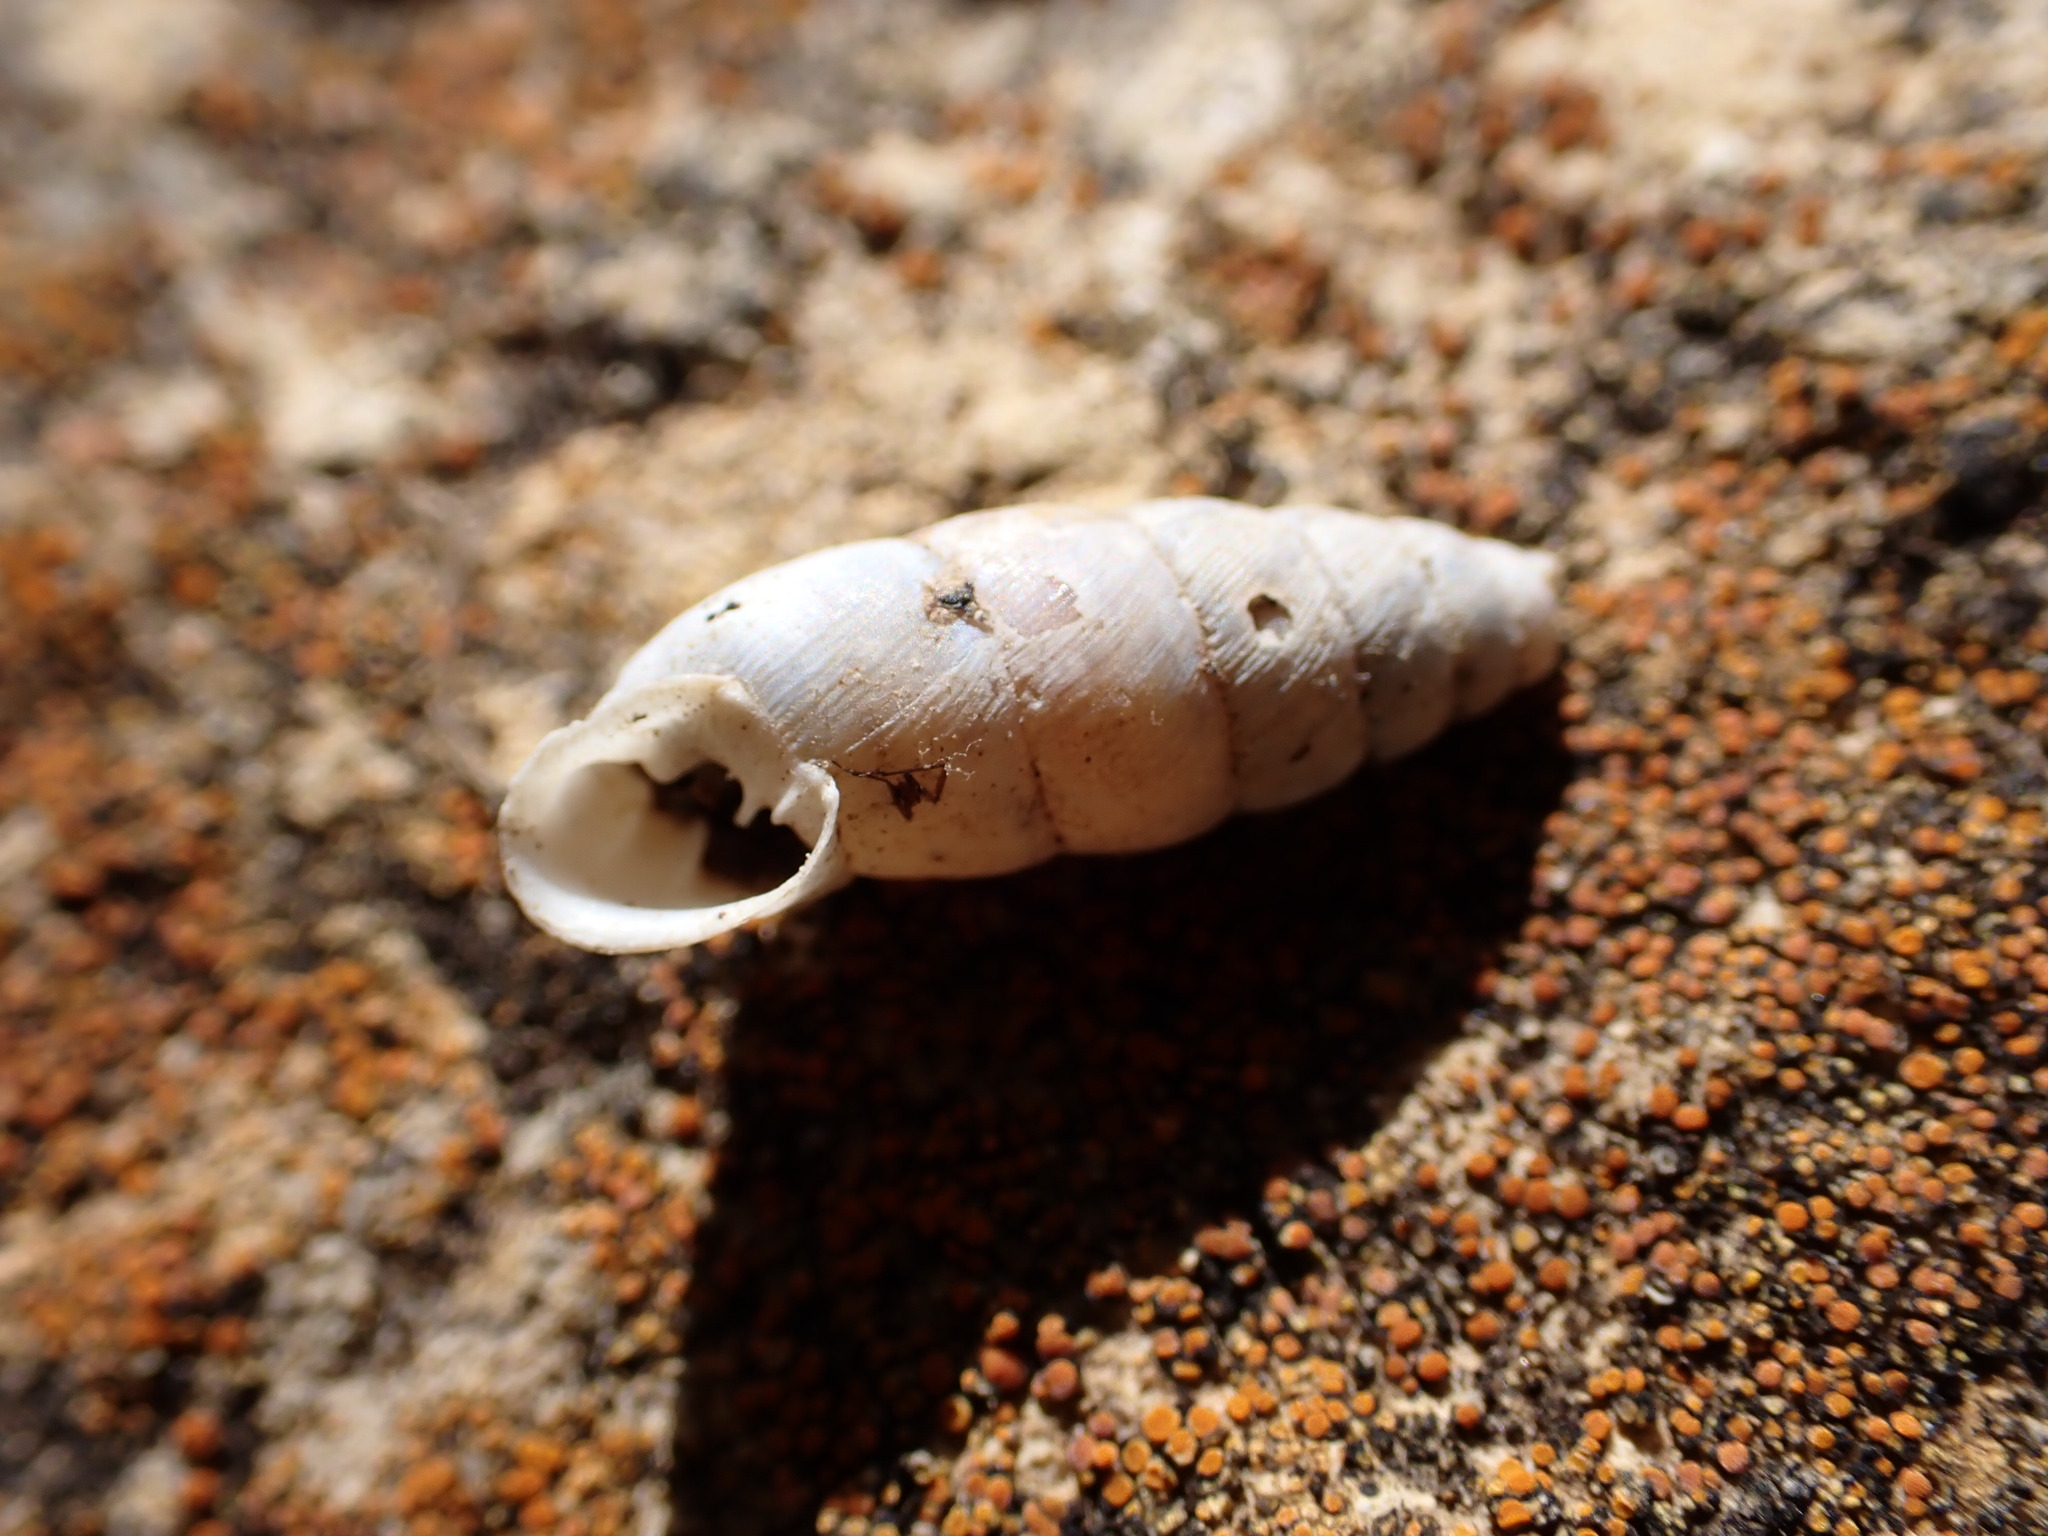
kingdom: Animalia
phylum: Mollusca
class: Gastropoda
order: Stylommatophora
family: Chondrinidae
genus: Solatopupa
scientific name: Solatopupa similis
